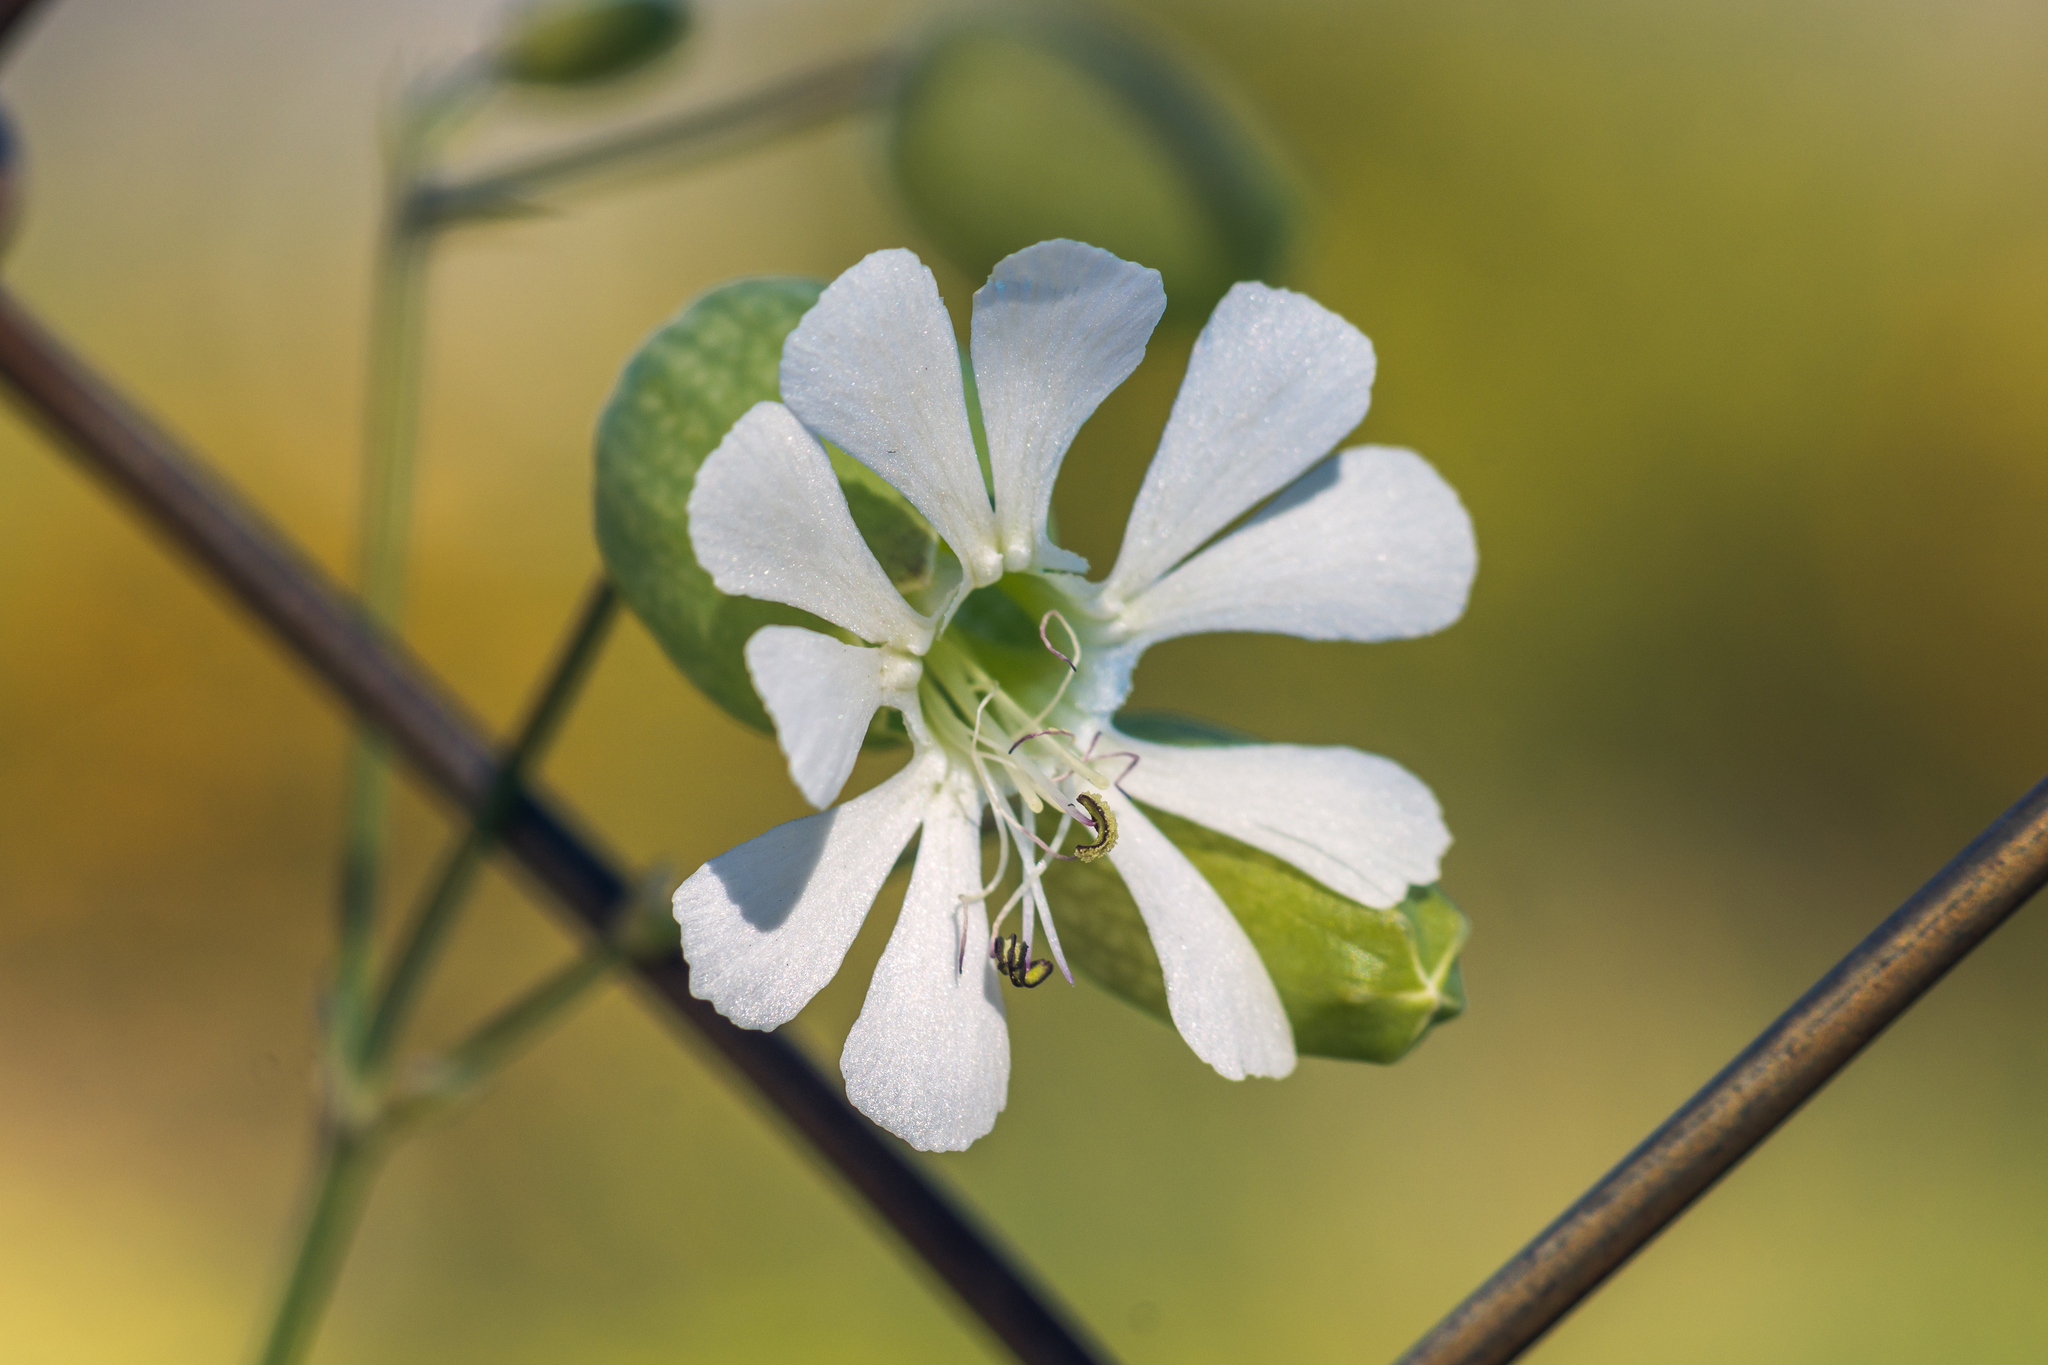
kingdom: Plantae
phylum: Tracheophyta
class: Magnoliopsida
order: Caryophyllales
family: Caryophyllaceae
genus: Silene
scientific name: Silene vulgaris
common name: Bladder campion
